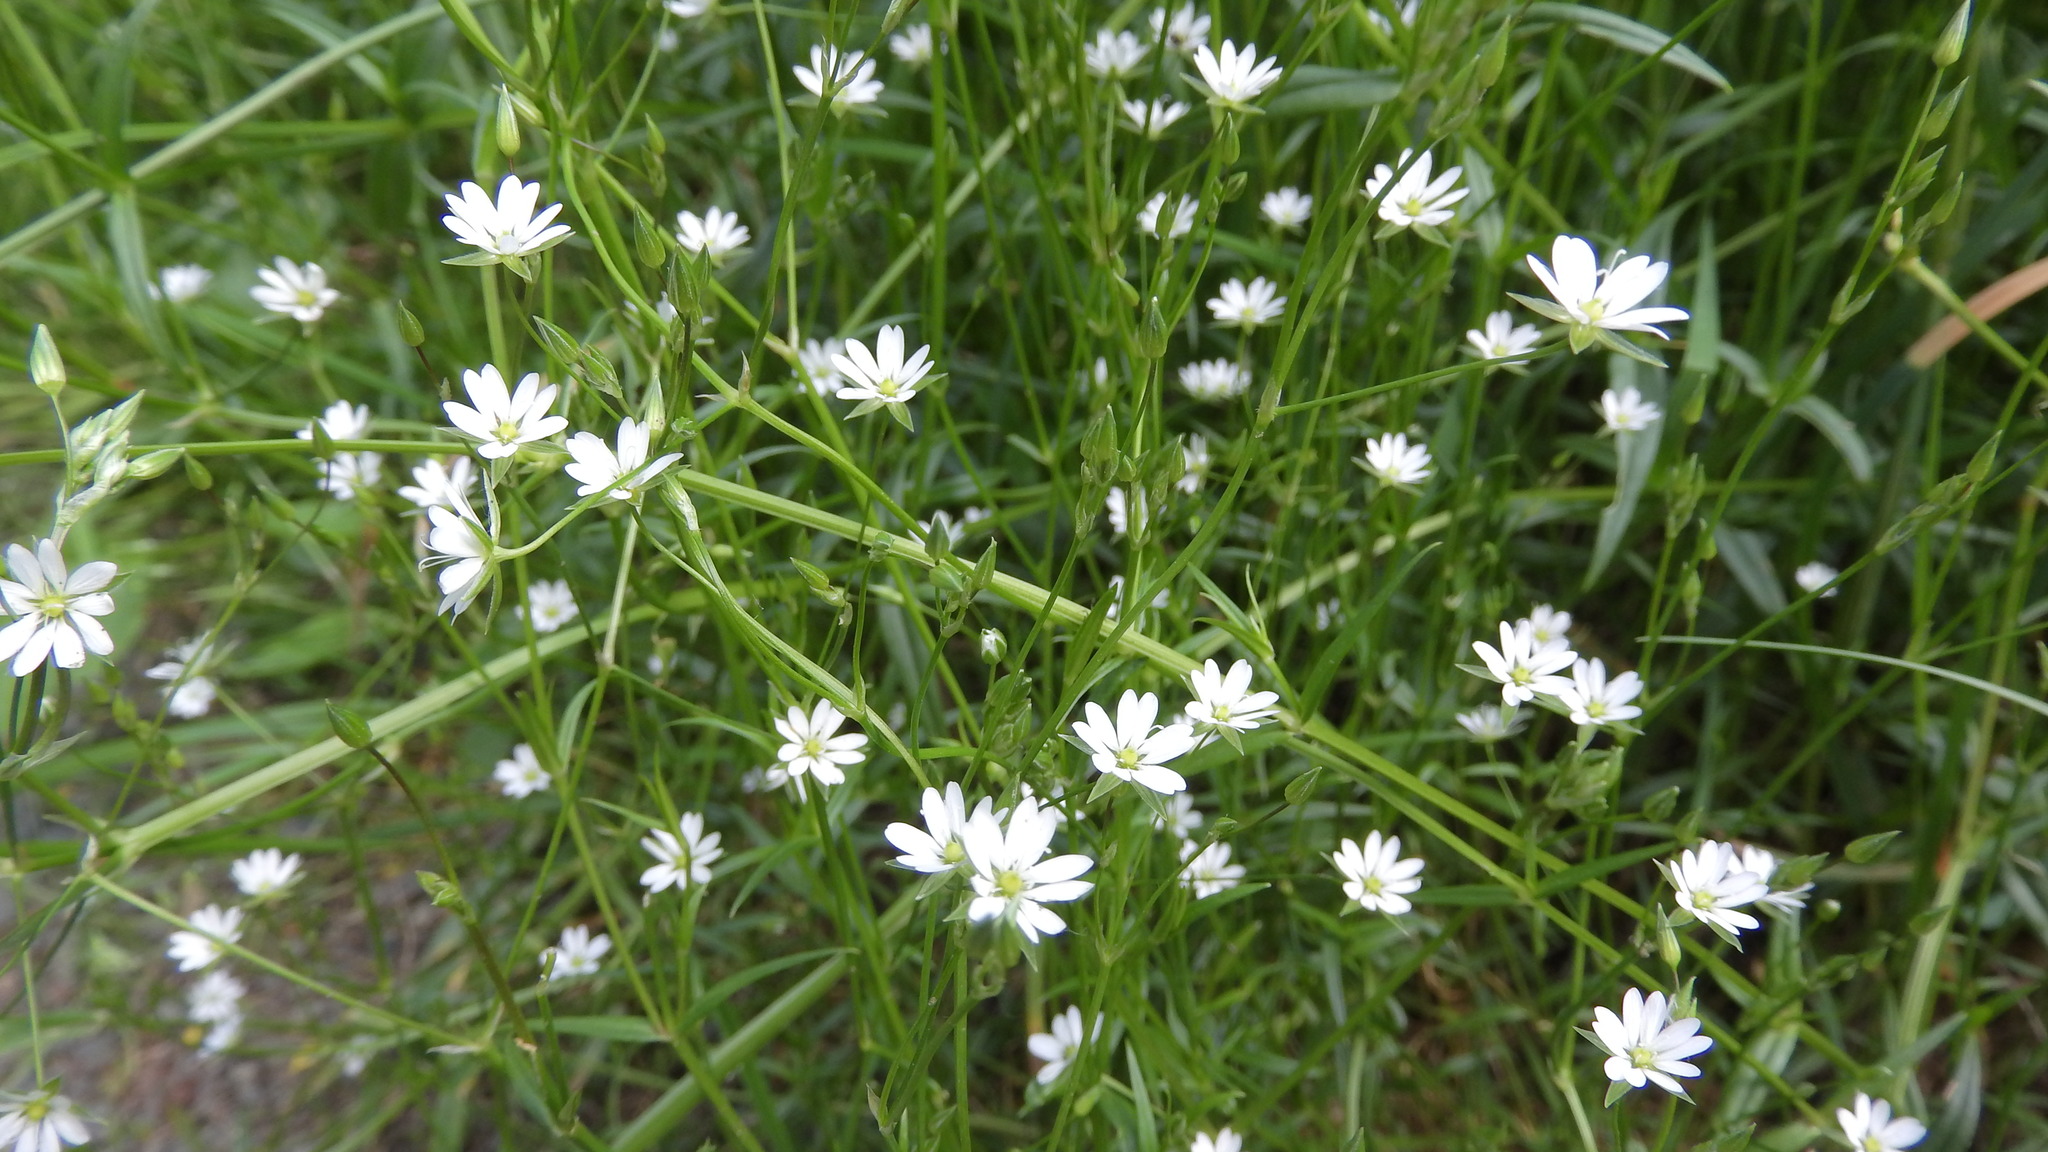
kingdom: Plantae
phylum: Tracheophyta
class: Magnoliopsida
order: Caryophyllales
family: Caryophyllaceae
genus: Stellaria
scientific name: Stellaria graminea
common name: Grass-like starwort
